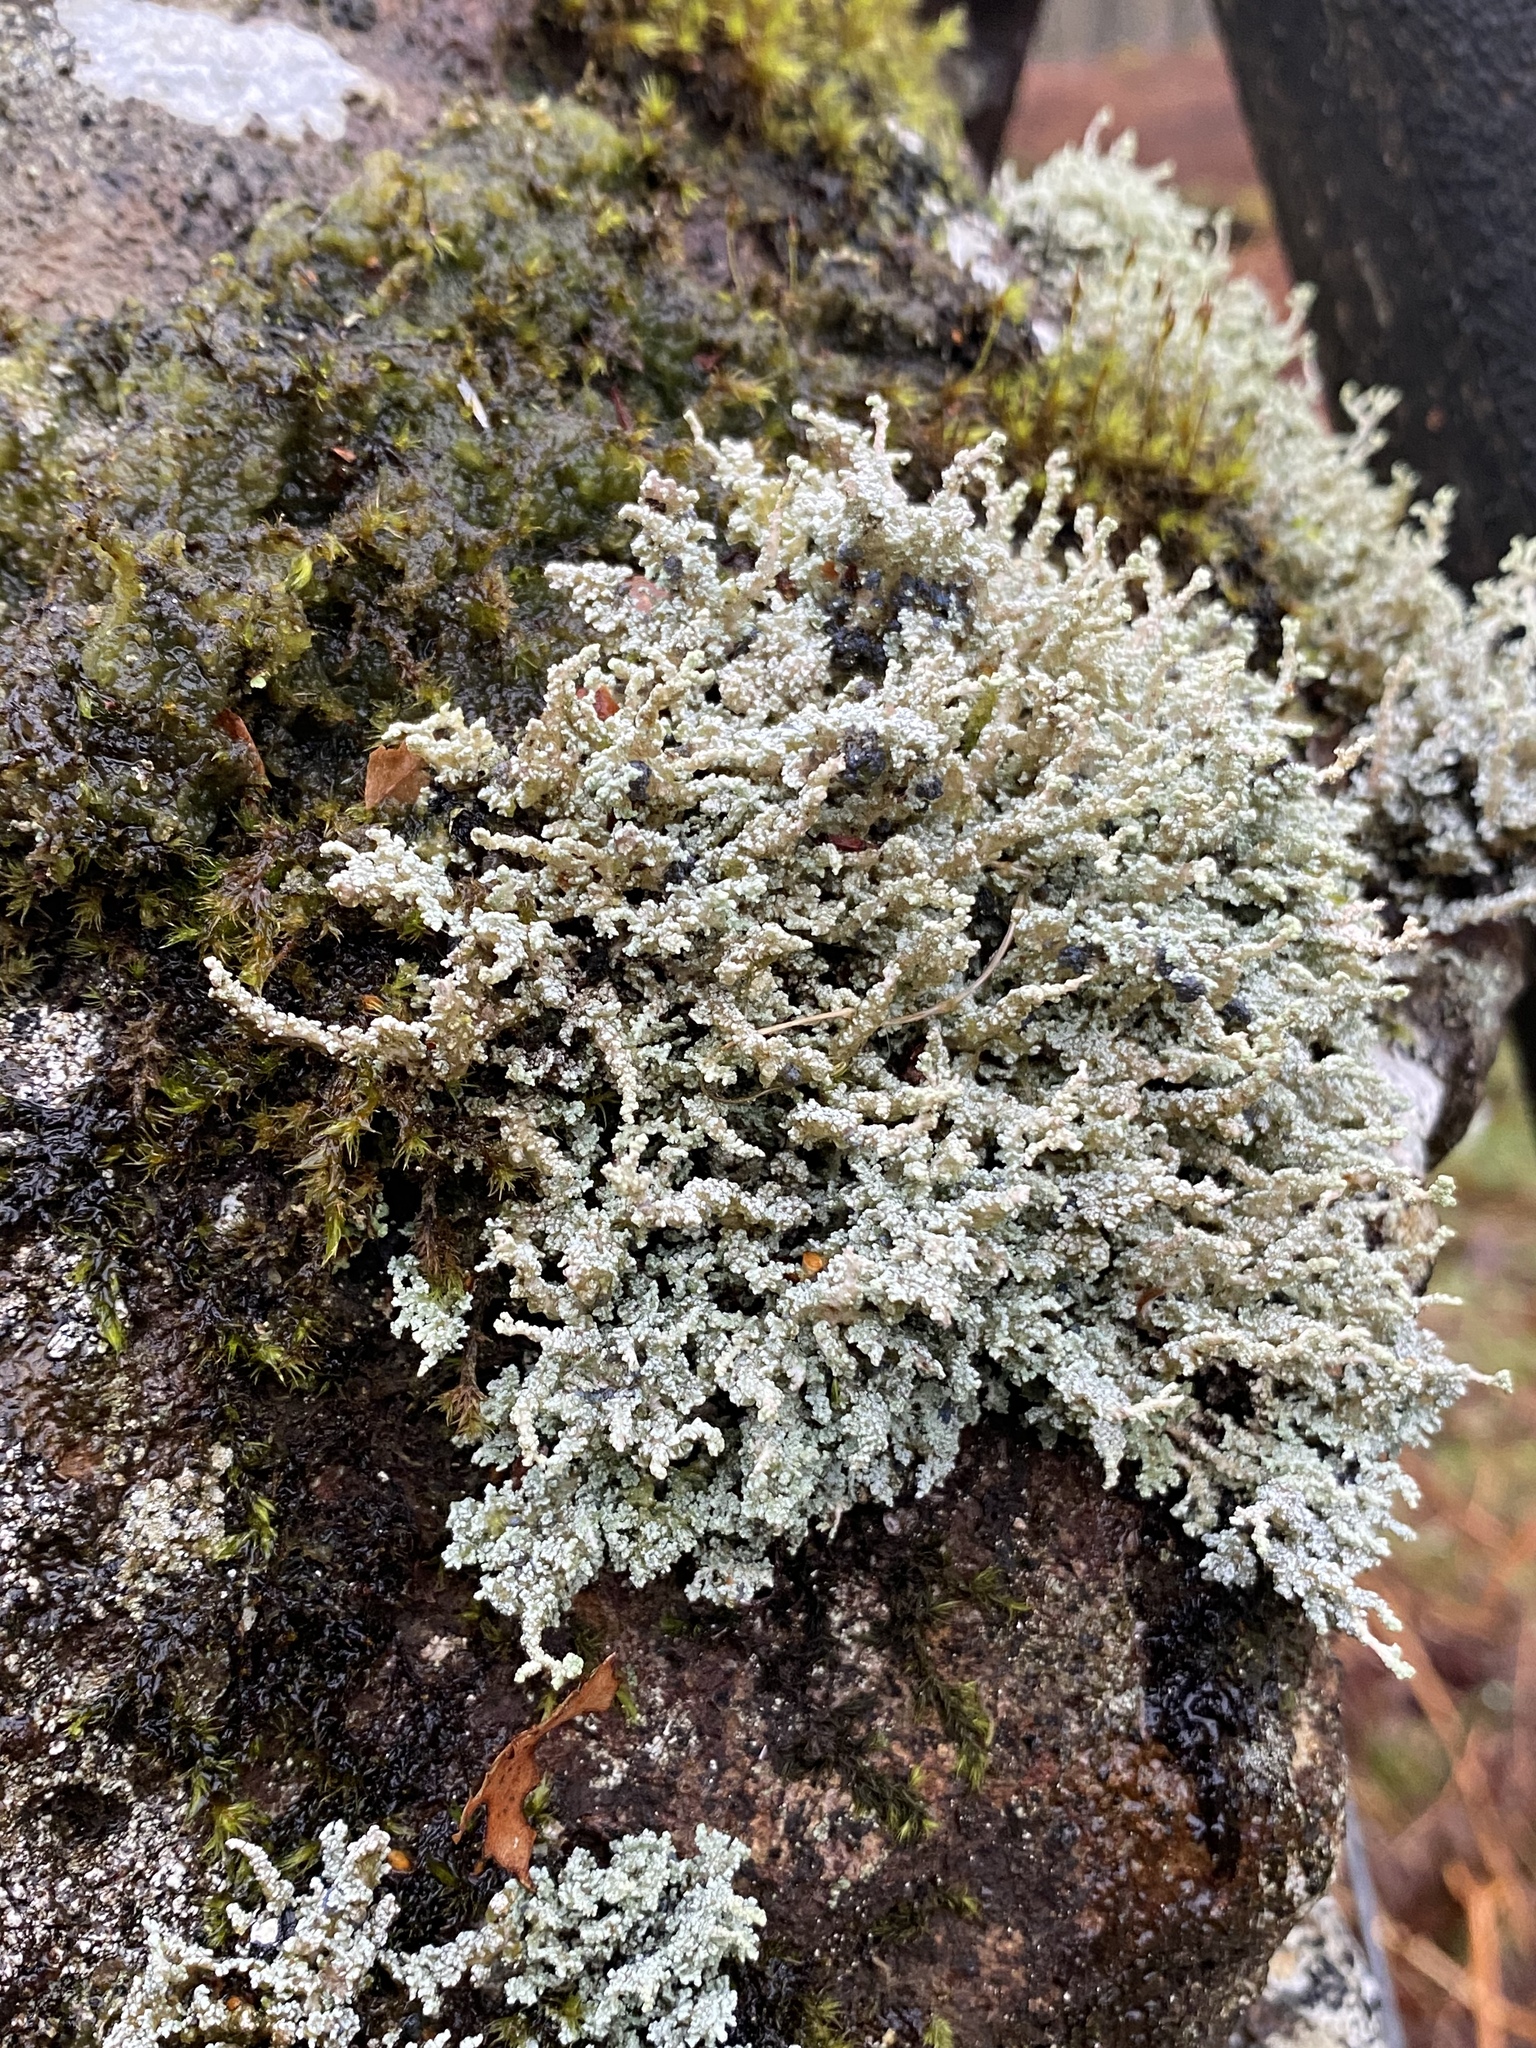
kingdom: Fungi
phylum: Ascomycota
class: Lecanoromycetes
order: Lecanorales
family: Stereocaulaceae
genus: Stereocaulon
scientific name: Stereocaulon vesuvianum
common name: Variegated foam lichen
